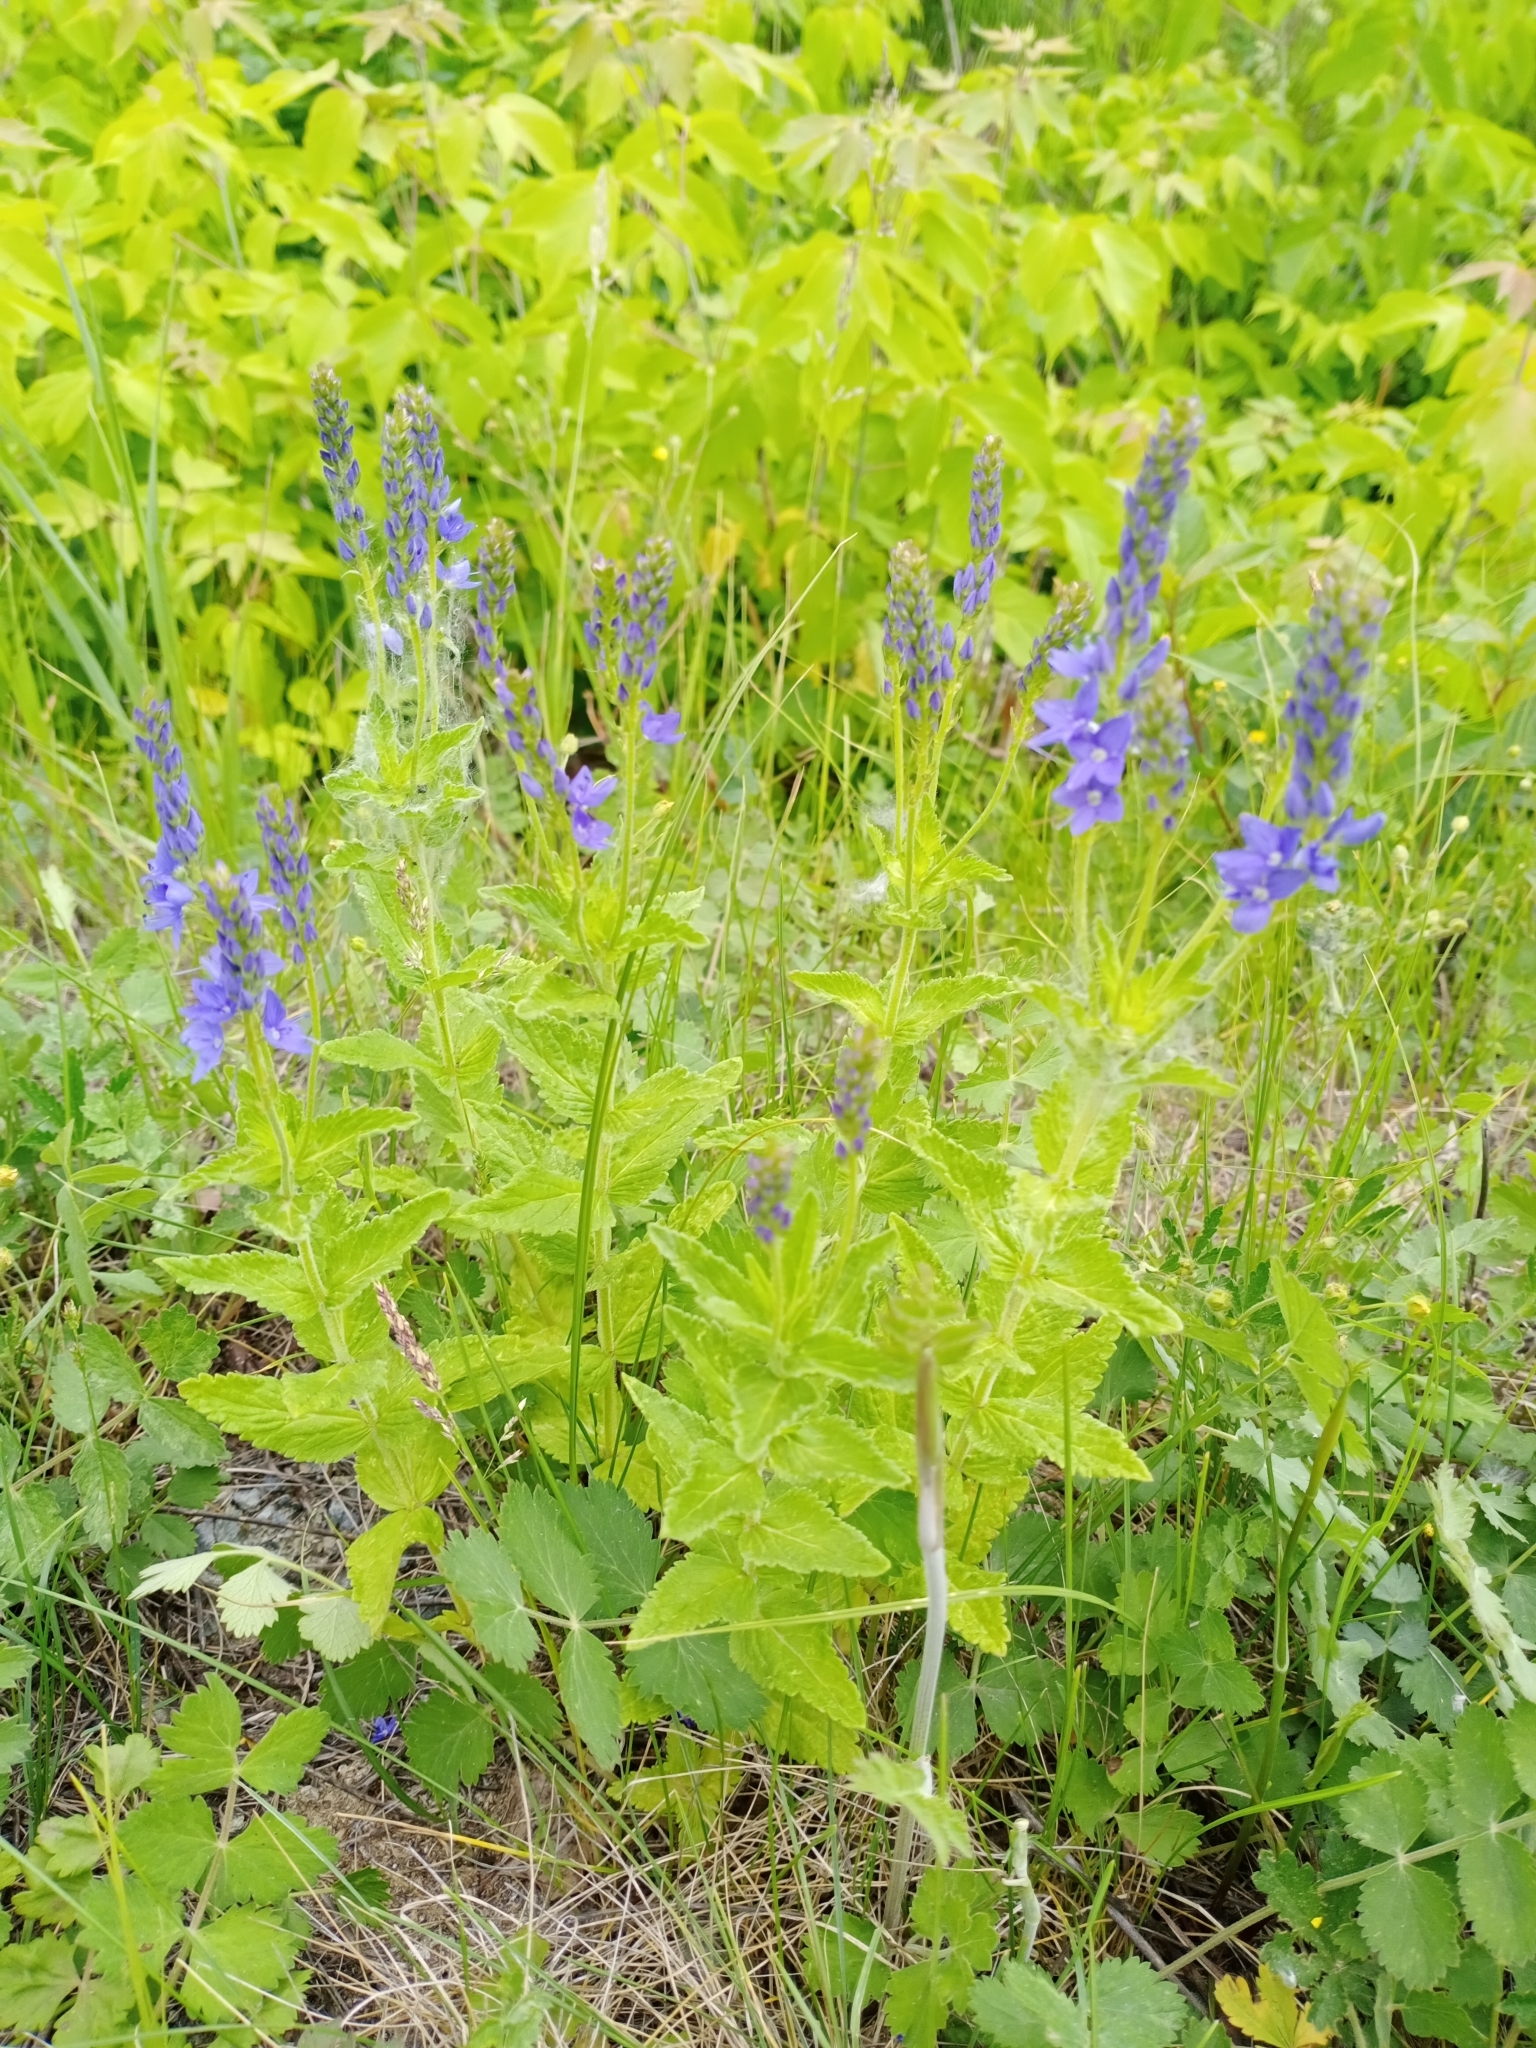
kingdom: Plantae
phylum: Tracheophyta
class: Magnoliopsida
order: Lamiales
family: Plantaginaceae
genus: Veronica
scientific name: Veronica teucrium
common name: Large speedwell
